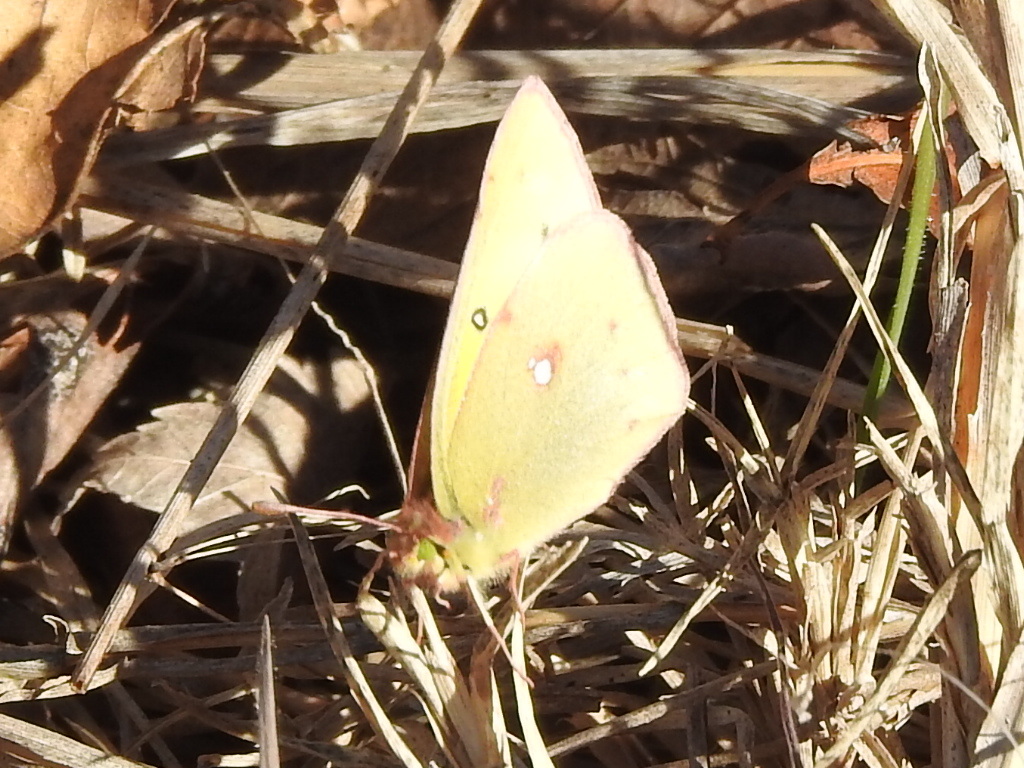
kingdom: Animalia
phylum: Arthropoda
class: Insecta
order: Lepidoptera
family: Pieridae
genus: Colias
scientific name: Colias eurytheme
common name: Alfalfa butterfly
